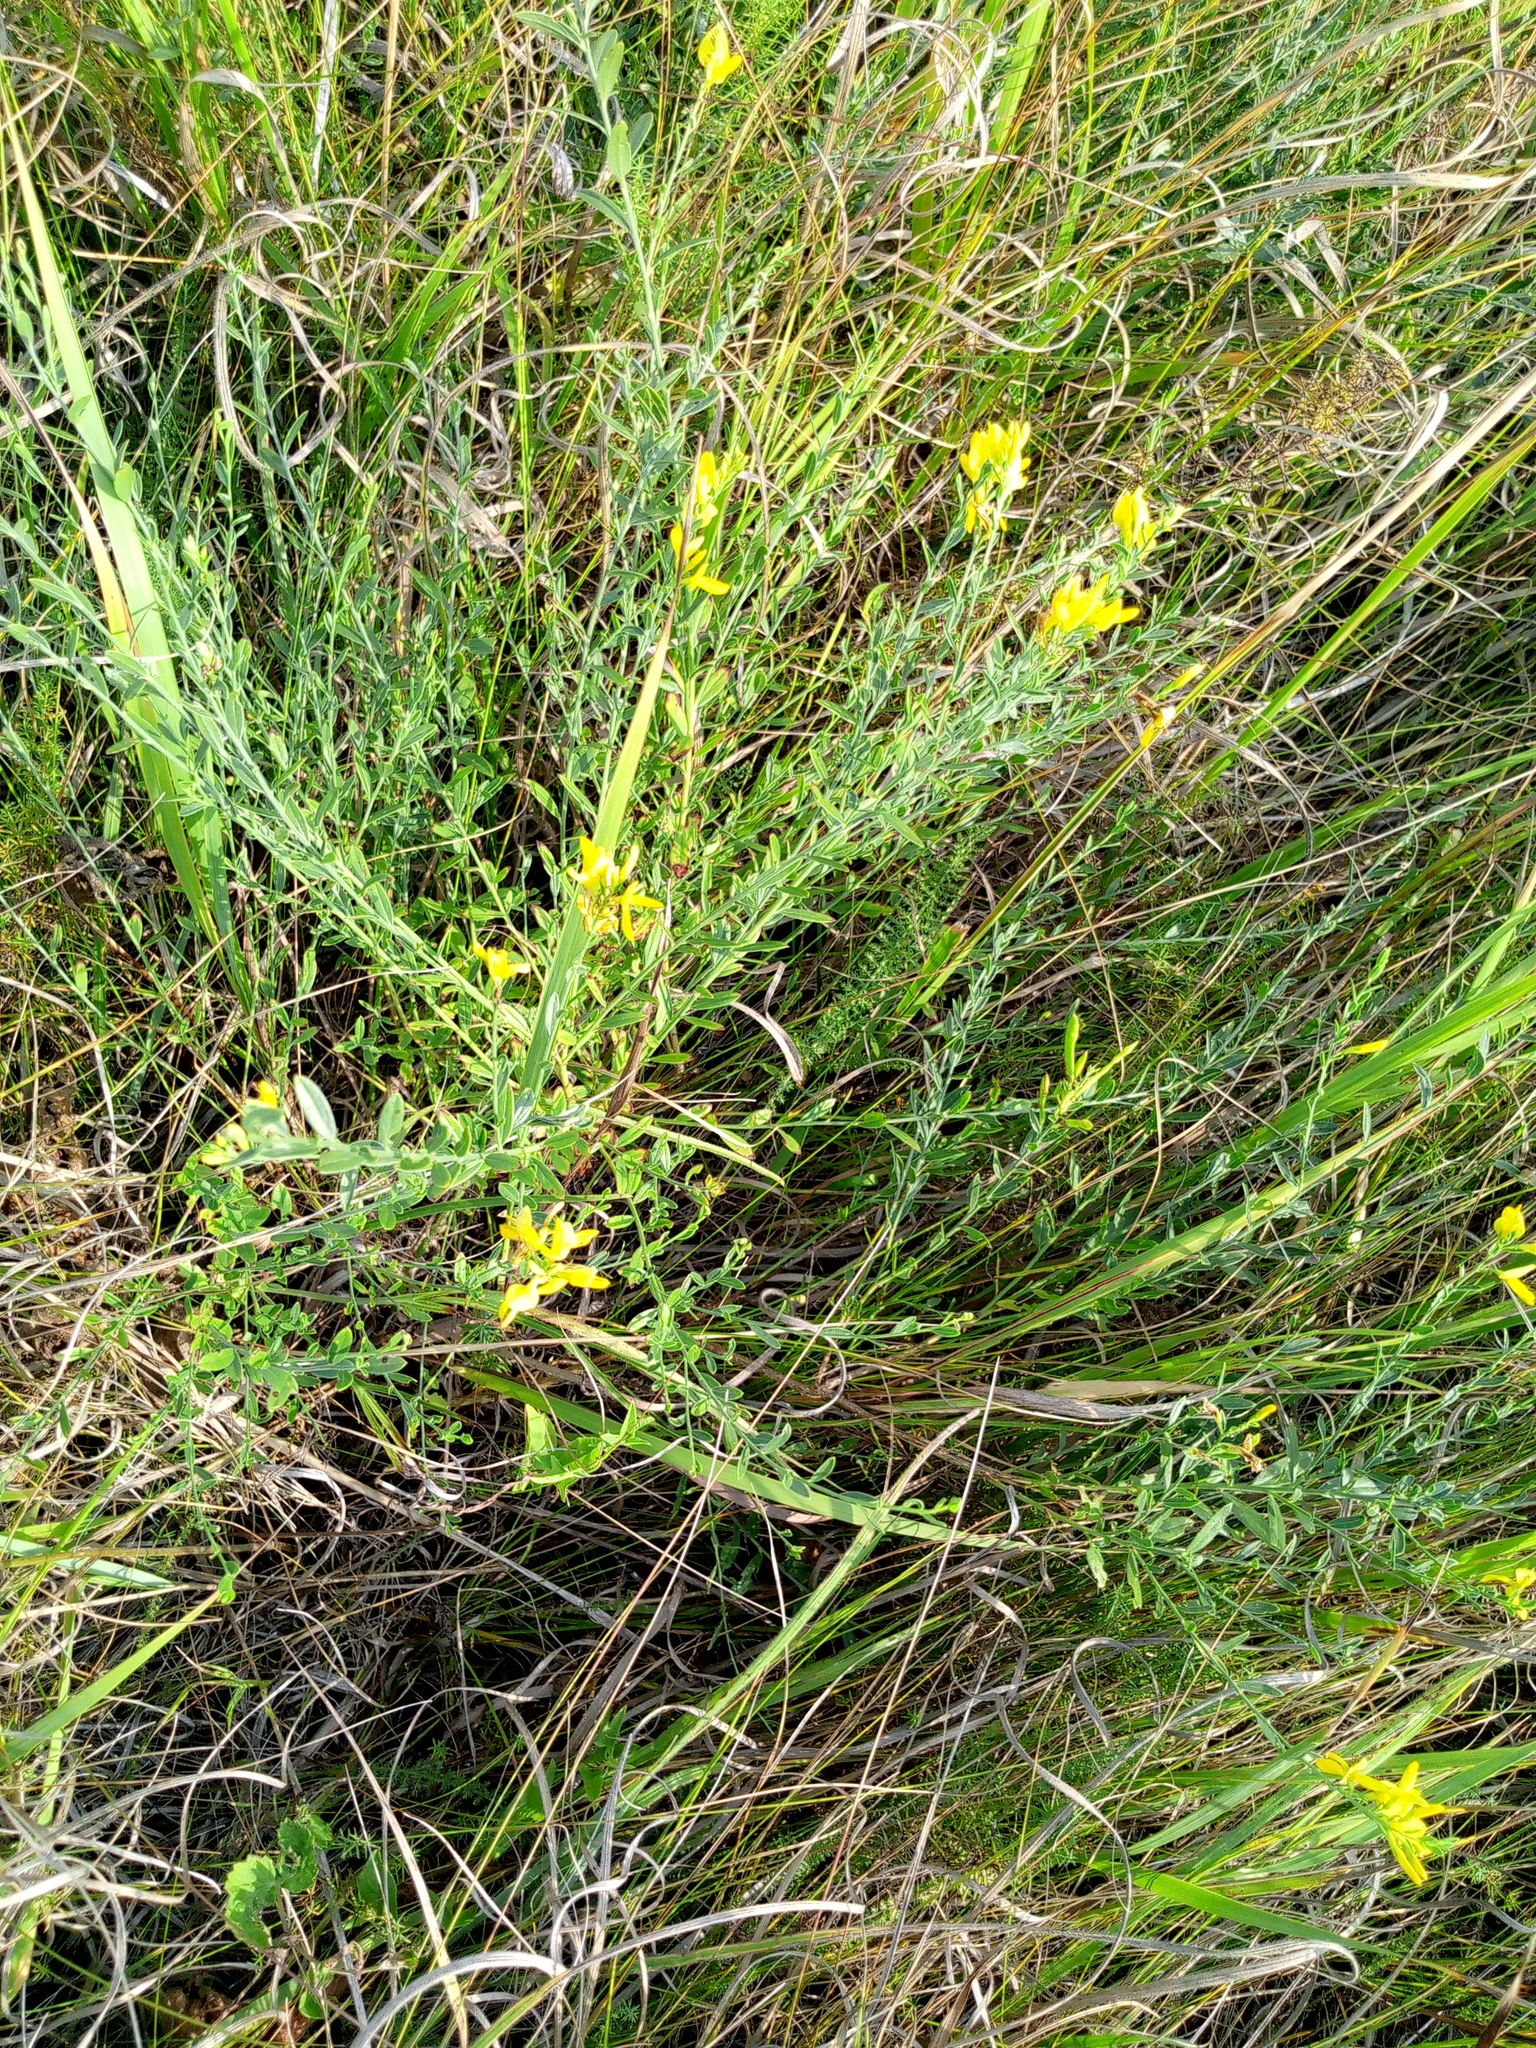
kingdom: Plantae
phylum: Tracheophyta
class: Magnoliopsida
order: Fabales
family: Fabaceae
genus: Genista
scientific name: Genista tinctoria
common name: Dyer's greenweed
